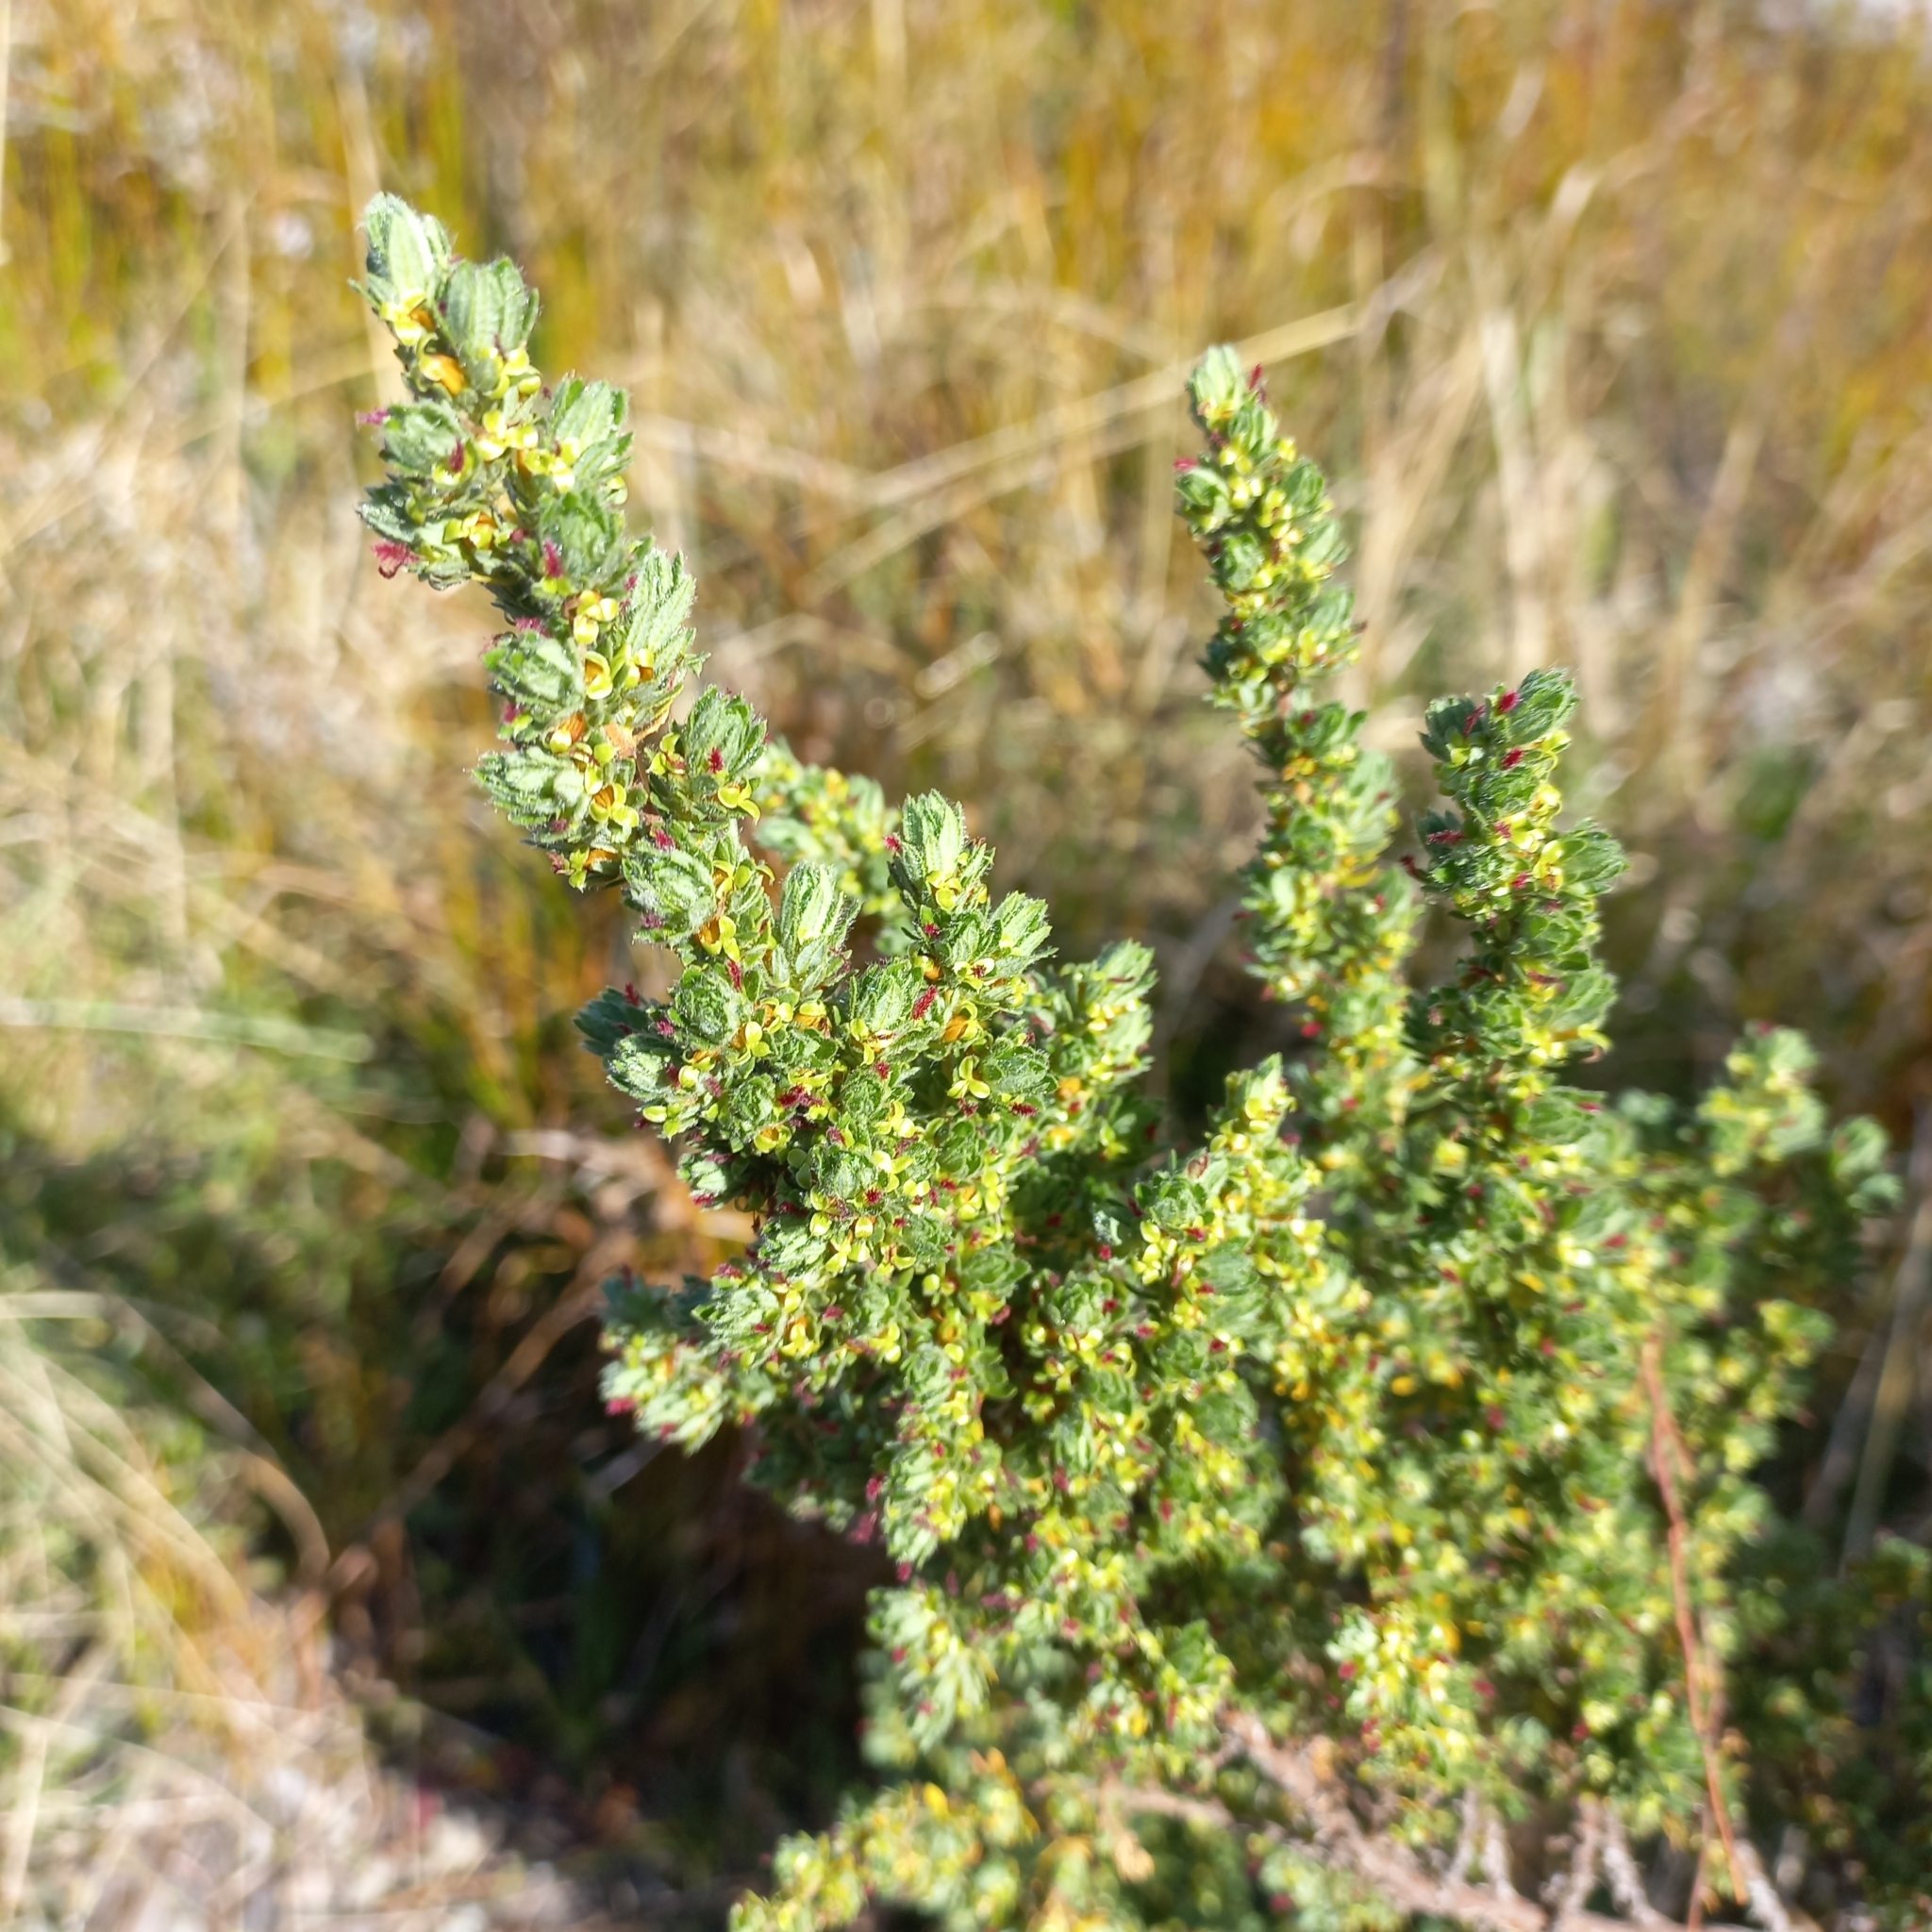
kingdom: Plantae
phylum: Tracheophyta
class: Magnoliopsida
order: Rosales
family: Rosaceae
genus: Cliffortia
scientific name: Cliffortia polygonifolia
